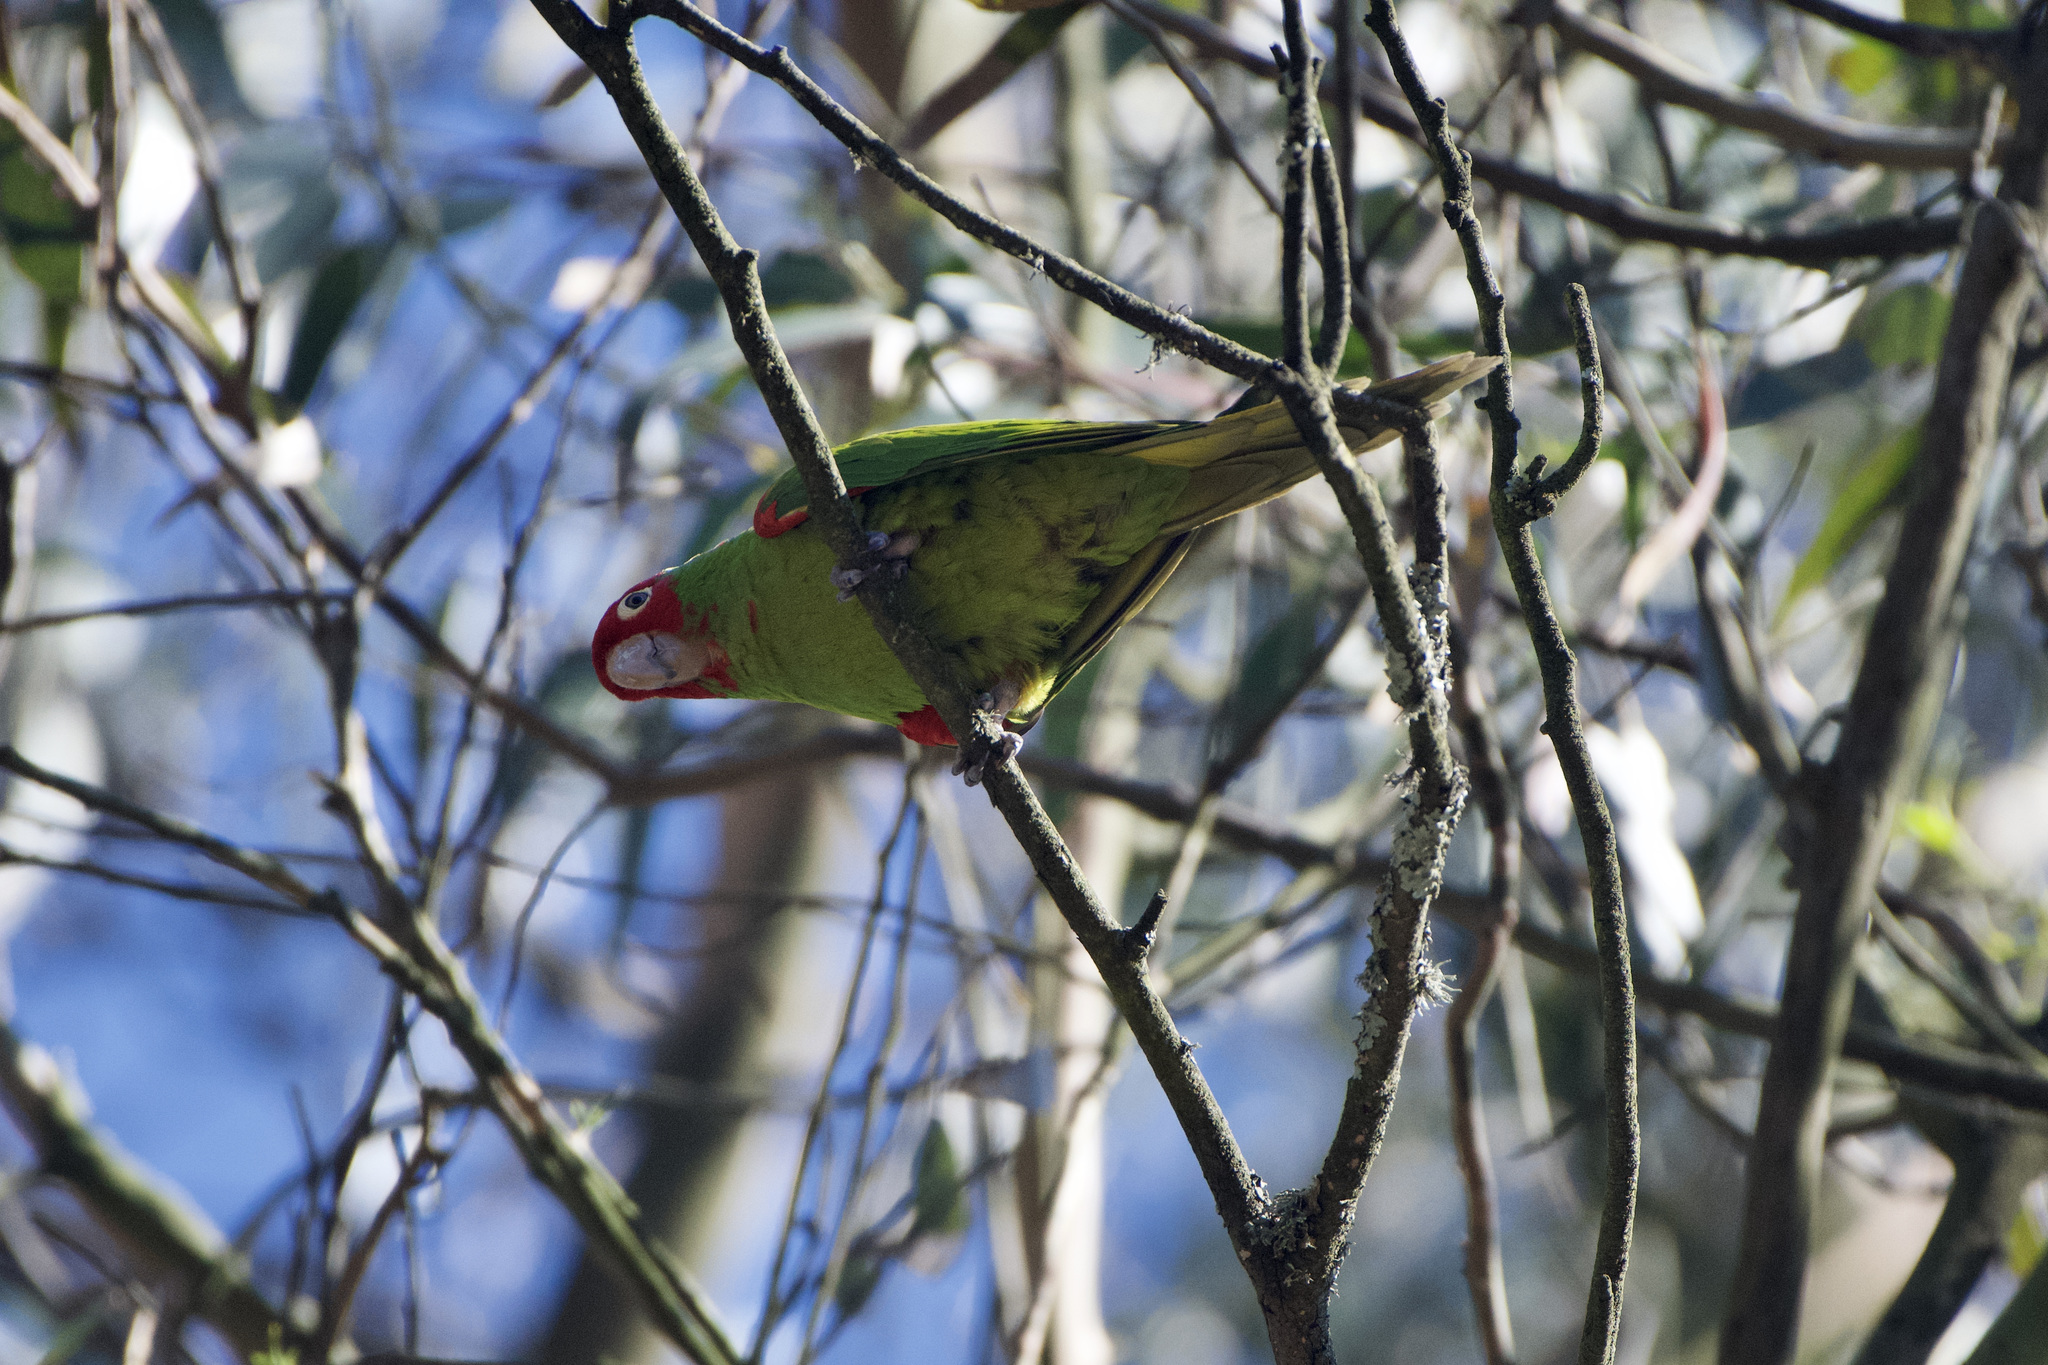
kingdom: Animalia
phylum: Chordata
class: Aves
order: Psittaciformes
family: Psittacidae
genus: Aratinga
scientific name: Aratinga erythrogenys
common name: Red-masked parakeet
